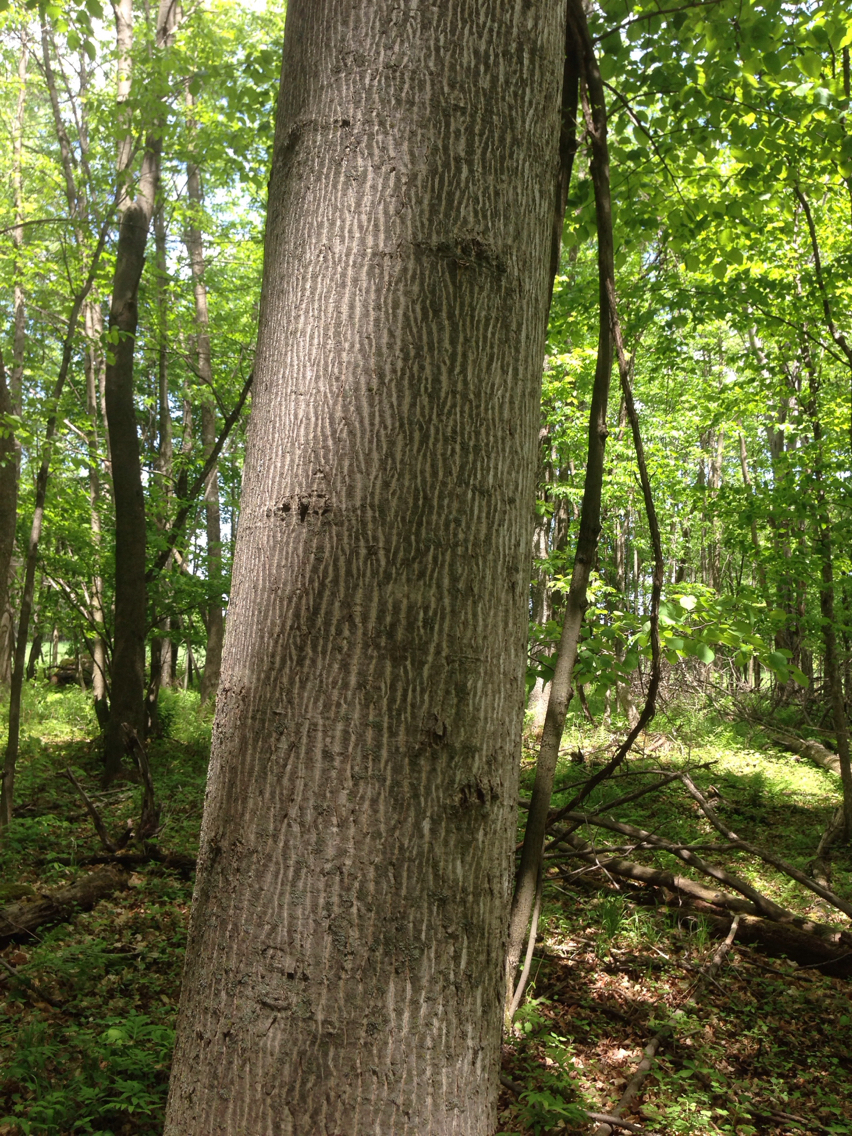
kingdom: Plantae
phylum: Tracheophyta
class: Magnoliopsida
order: Fagales
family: Juglandaceae
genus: Carya
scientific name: Carya cordiformis
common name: Bitternut hickory
